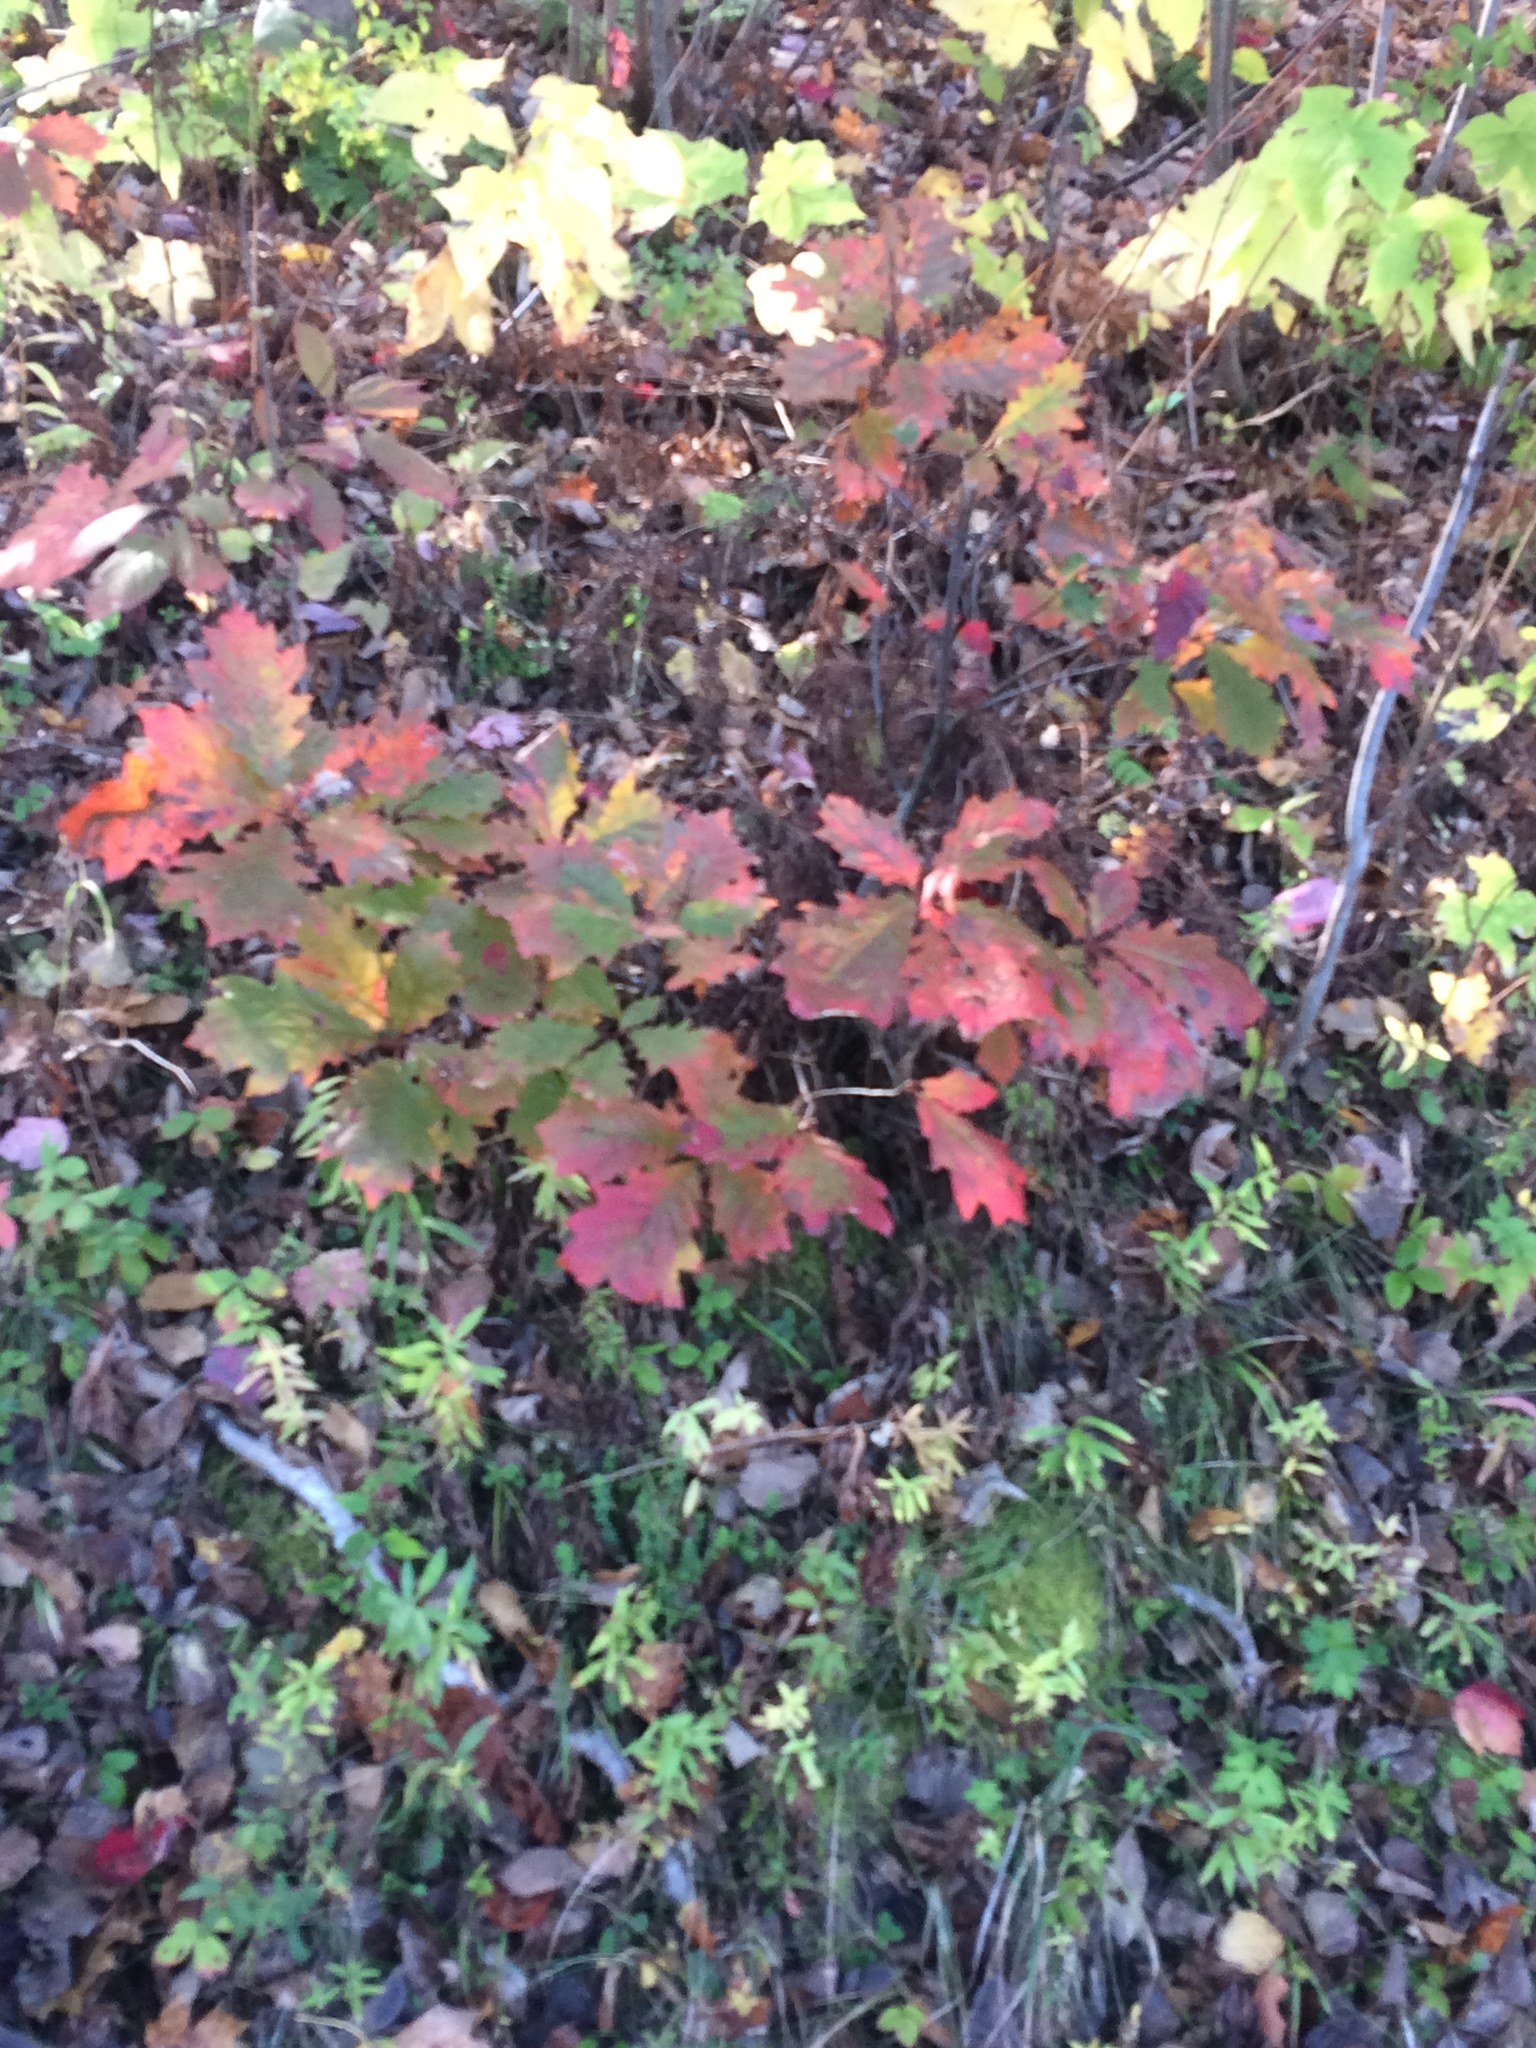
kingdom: Plantae
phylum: Tracheophyta
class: Magnoliopsida
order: Fagales
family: Fagaceae
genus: Quercus
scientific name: Quercus rubra
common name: Red oak
